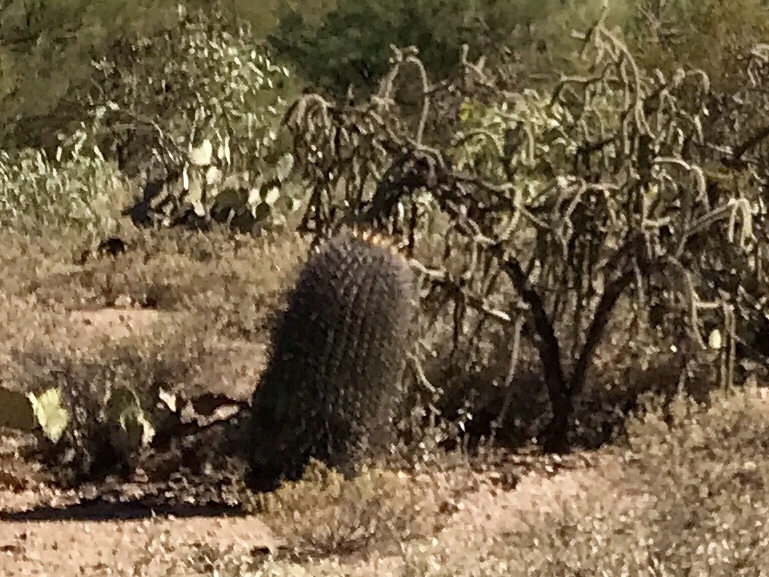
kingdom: Plantae
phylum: Tracheophyta
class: Magnoliopsida
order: Caryophyllales
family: Cactaceae
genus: Ferocactus
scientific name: Ferocactus wislizeni
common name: Candy barrel cactus
